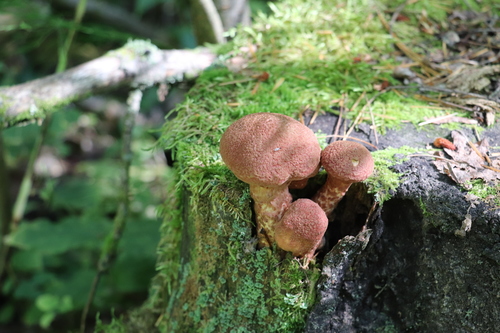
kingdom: Fungi
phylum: Basidiomycota
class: Agaricomycetes
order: Boletales
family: Suillaceae
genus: Suillus
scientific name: Suillus spraguei
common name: Painted suillus
